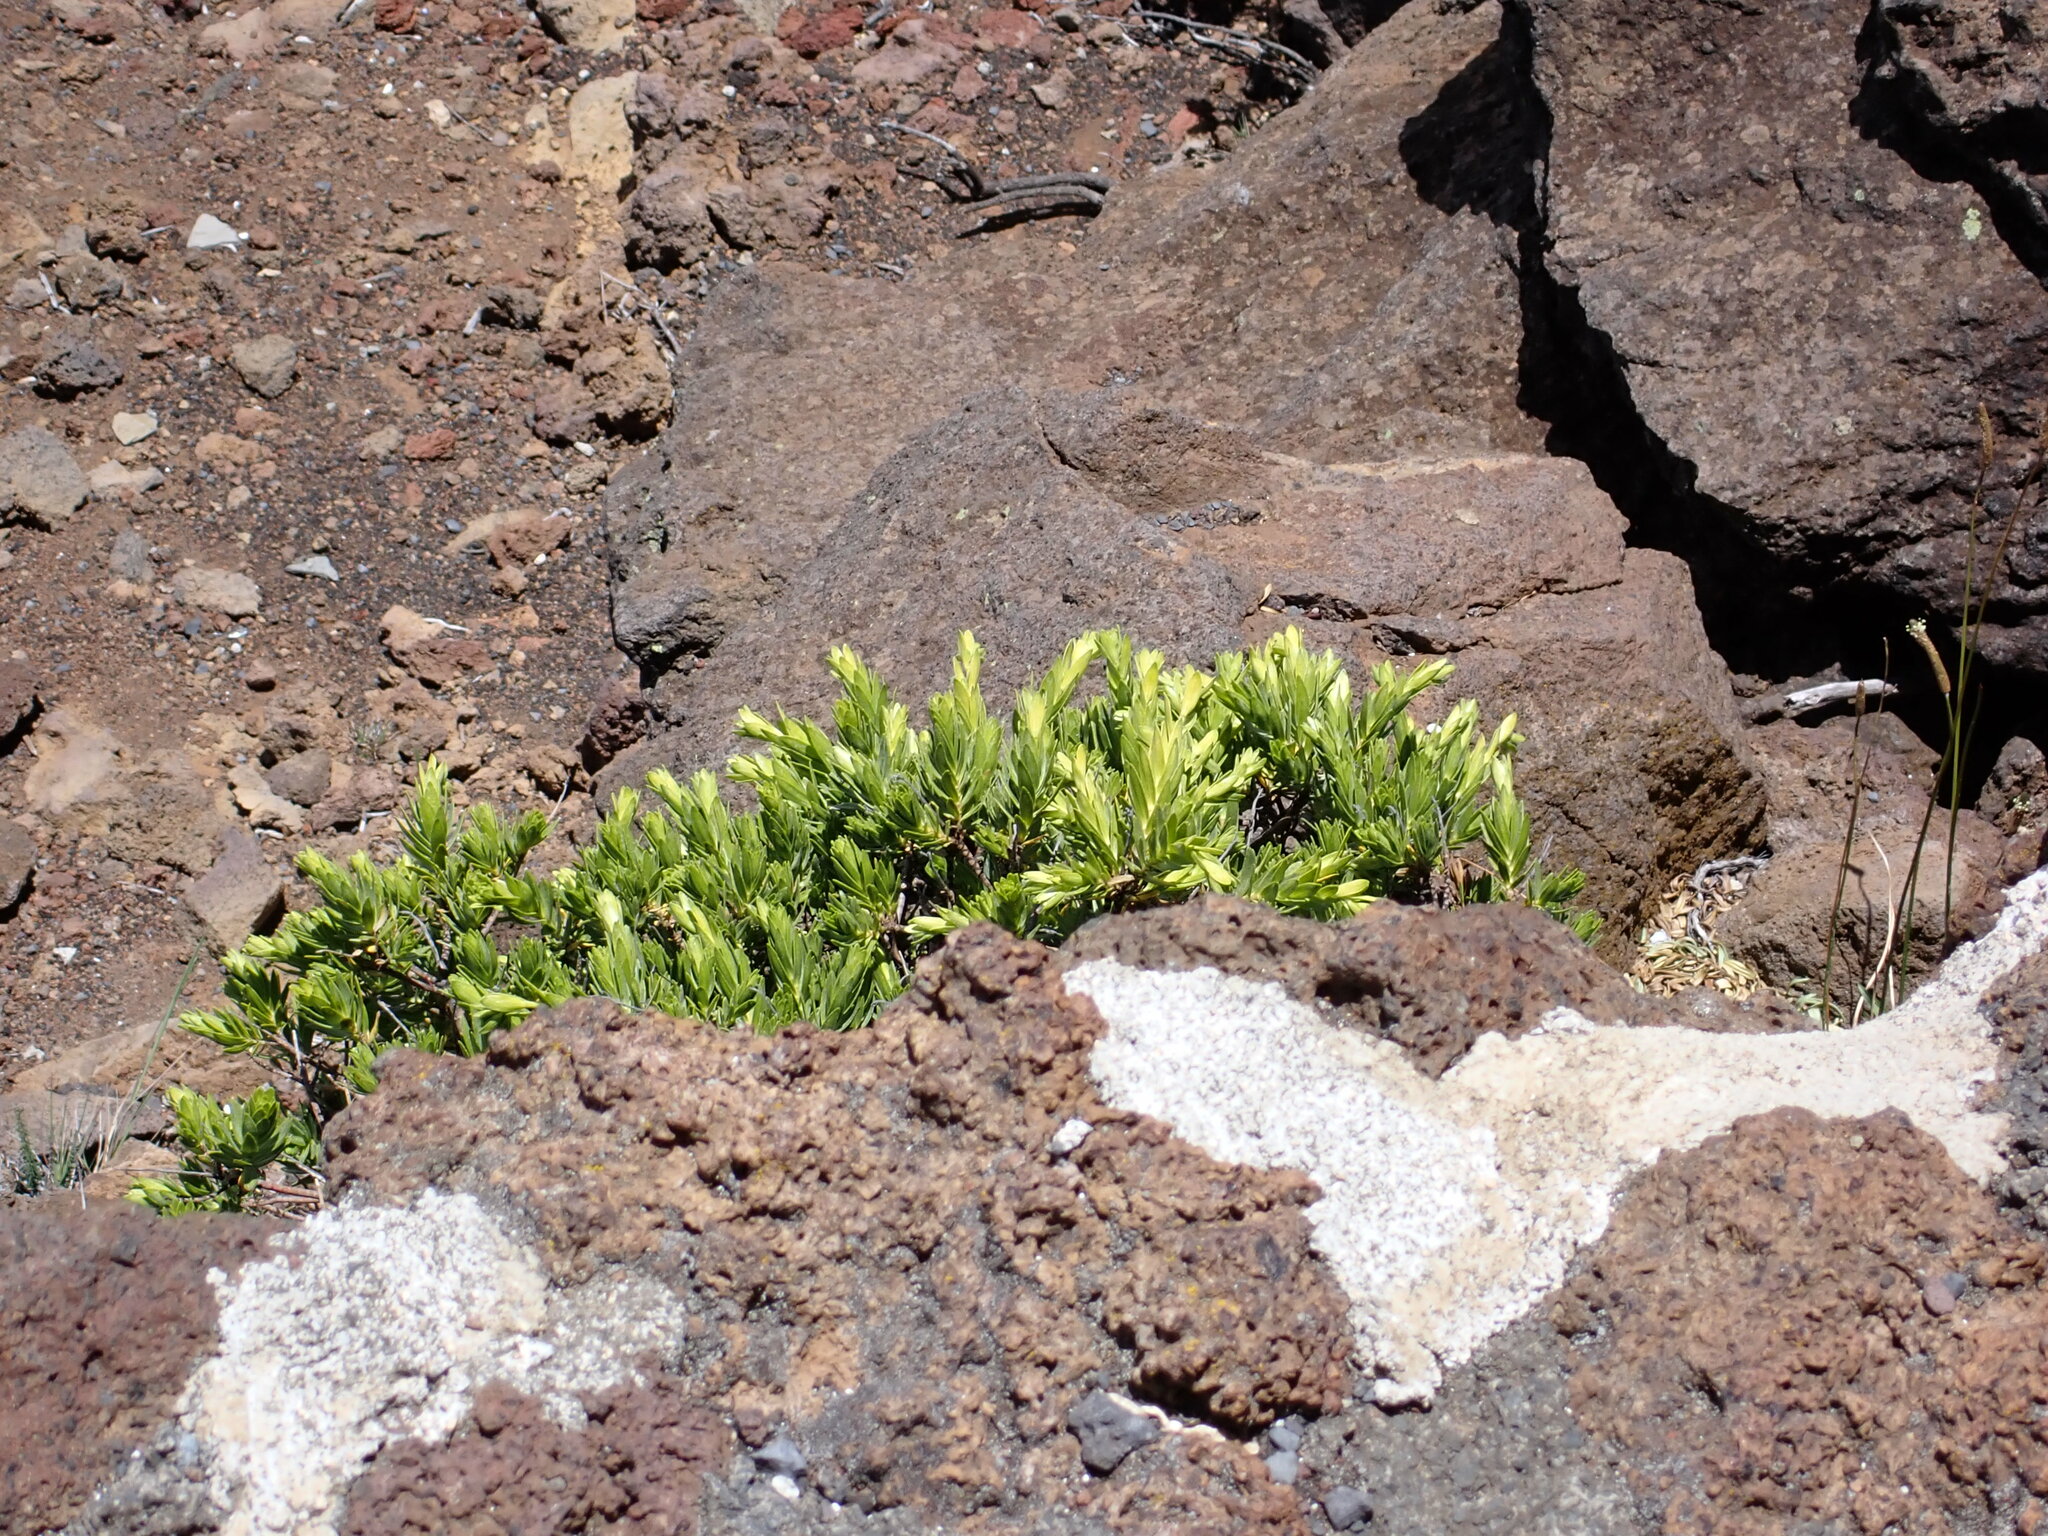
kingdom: Plantae
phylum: Tracheophyta
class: Magnoliopsida
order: Asterales
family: Asteraceae
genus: Dubautia
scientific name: Dubautia menziesii
